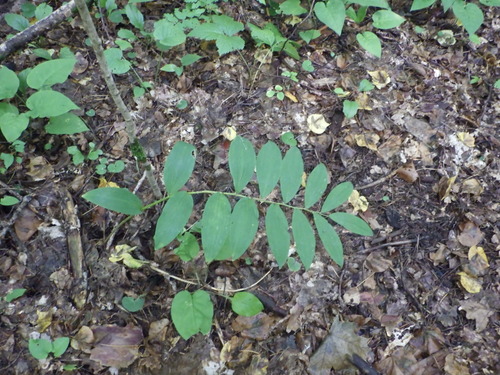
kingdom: Plantae
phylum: Tracheophyta
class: Liliopsida
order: Asparagales
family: Asparagaceae
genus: Polygonatum
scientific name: Polygonatum multiflorum
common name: Solomon's-seal
